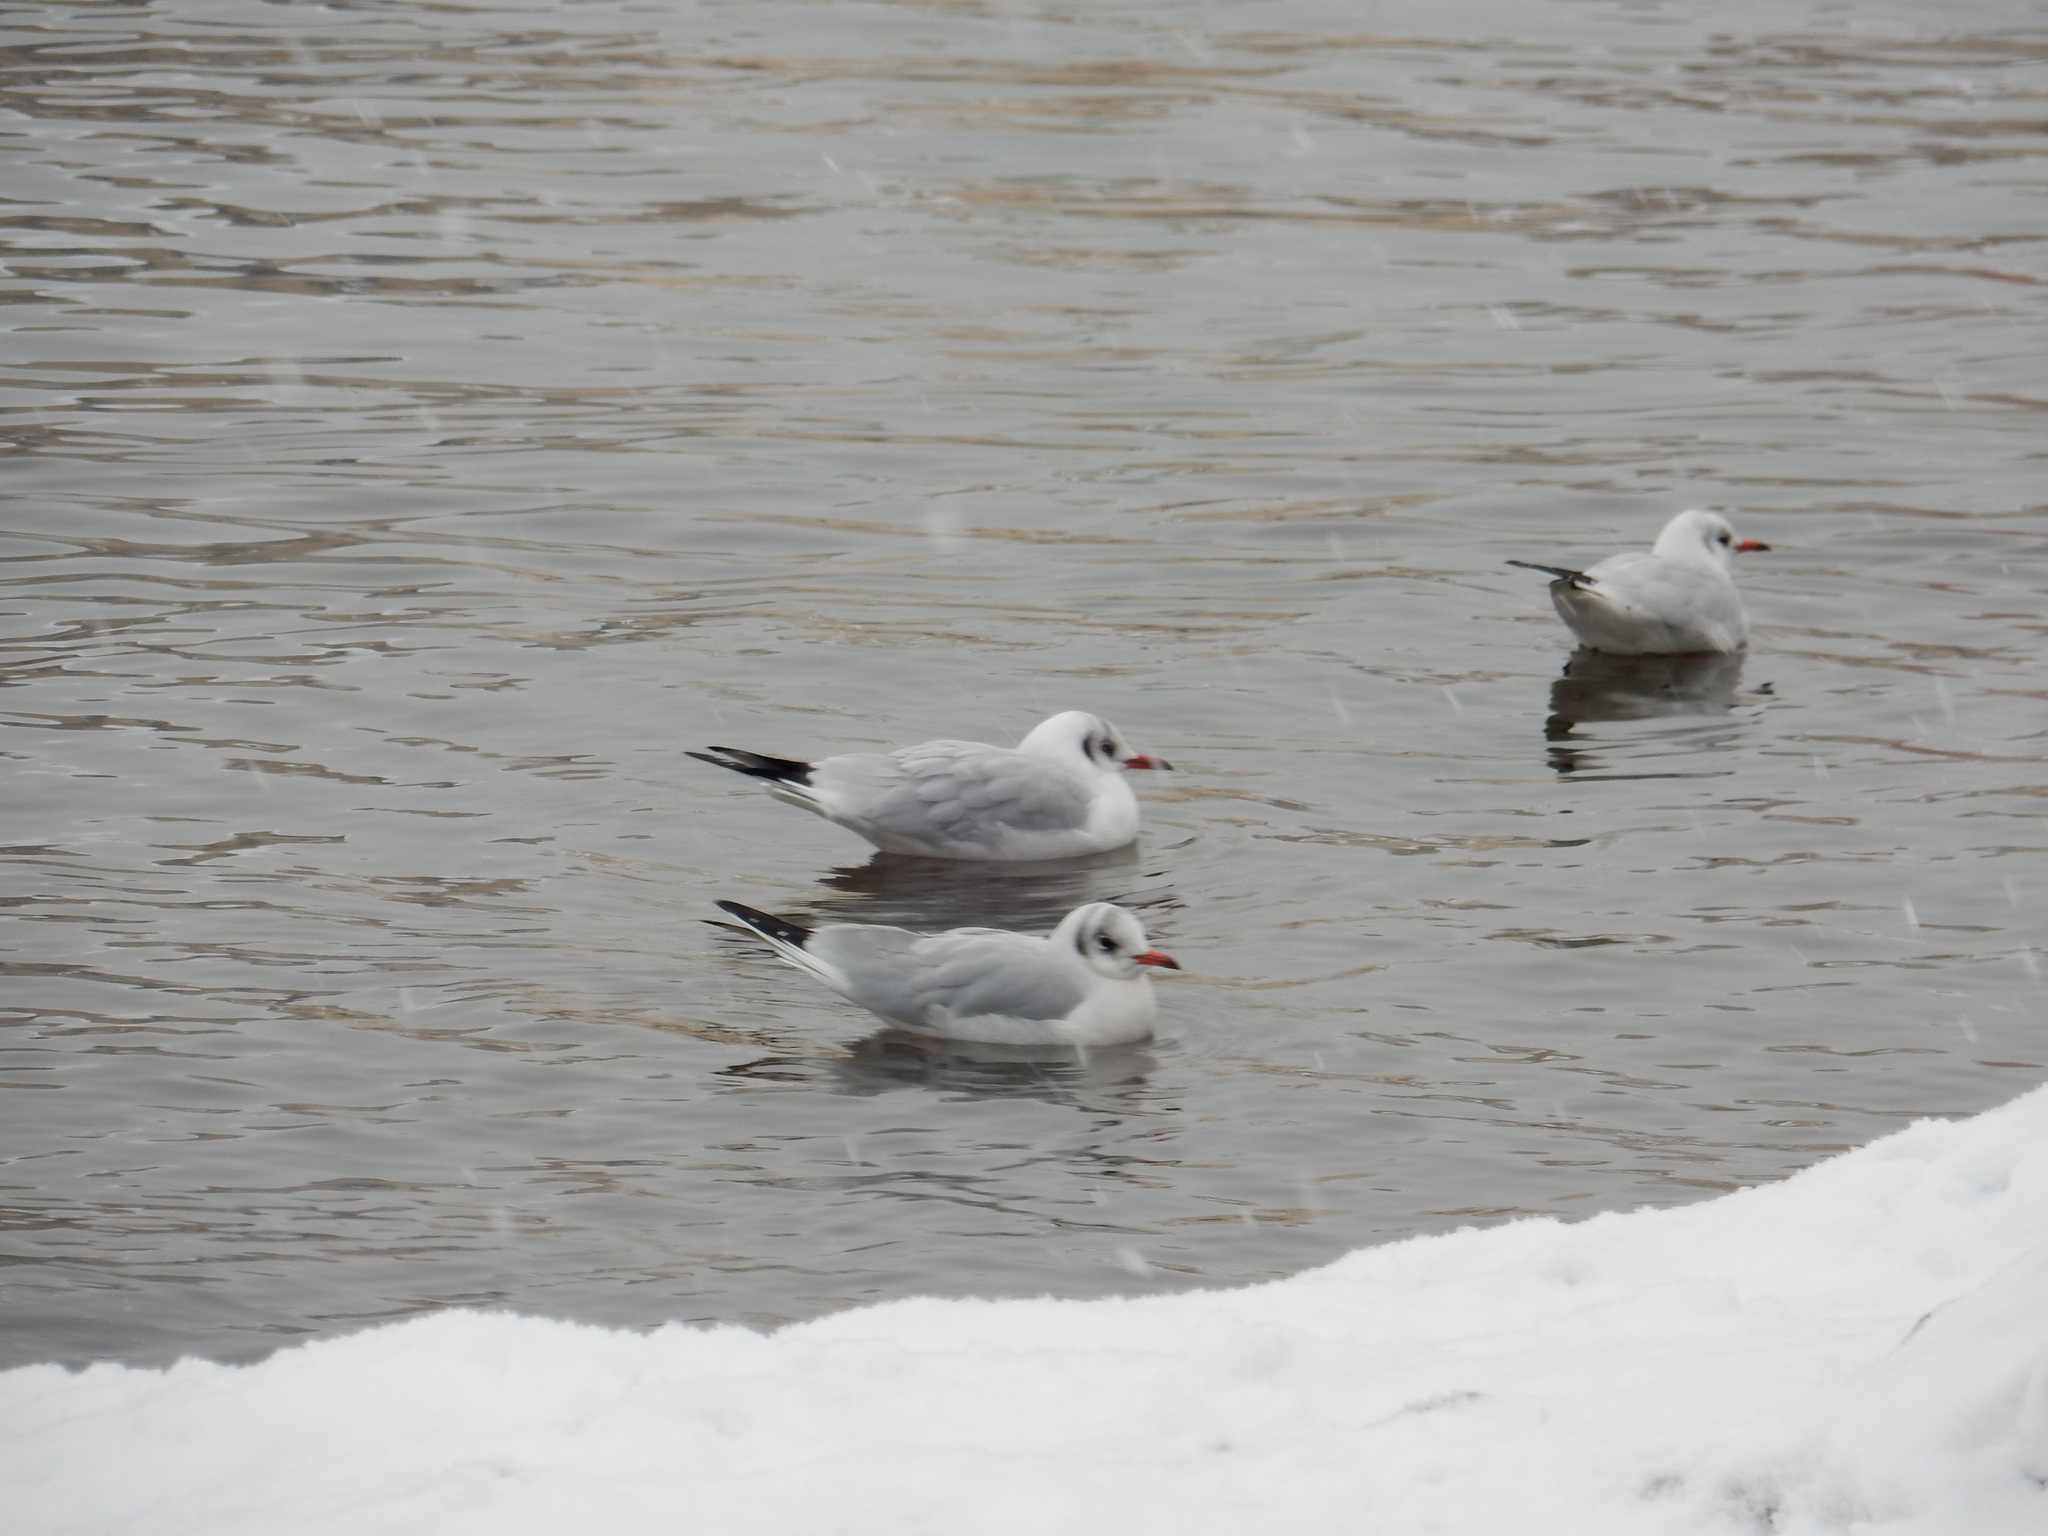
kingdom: Animalia
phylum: Chordata
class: Aves
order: Charadriiformes
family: Laridae
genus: Chroicocephalus
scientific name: Chroicocephalus ridibundus
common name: Black-headed gull
